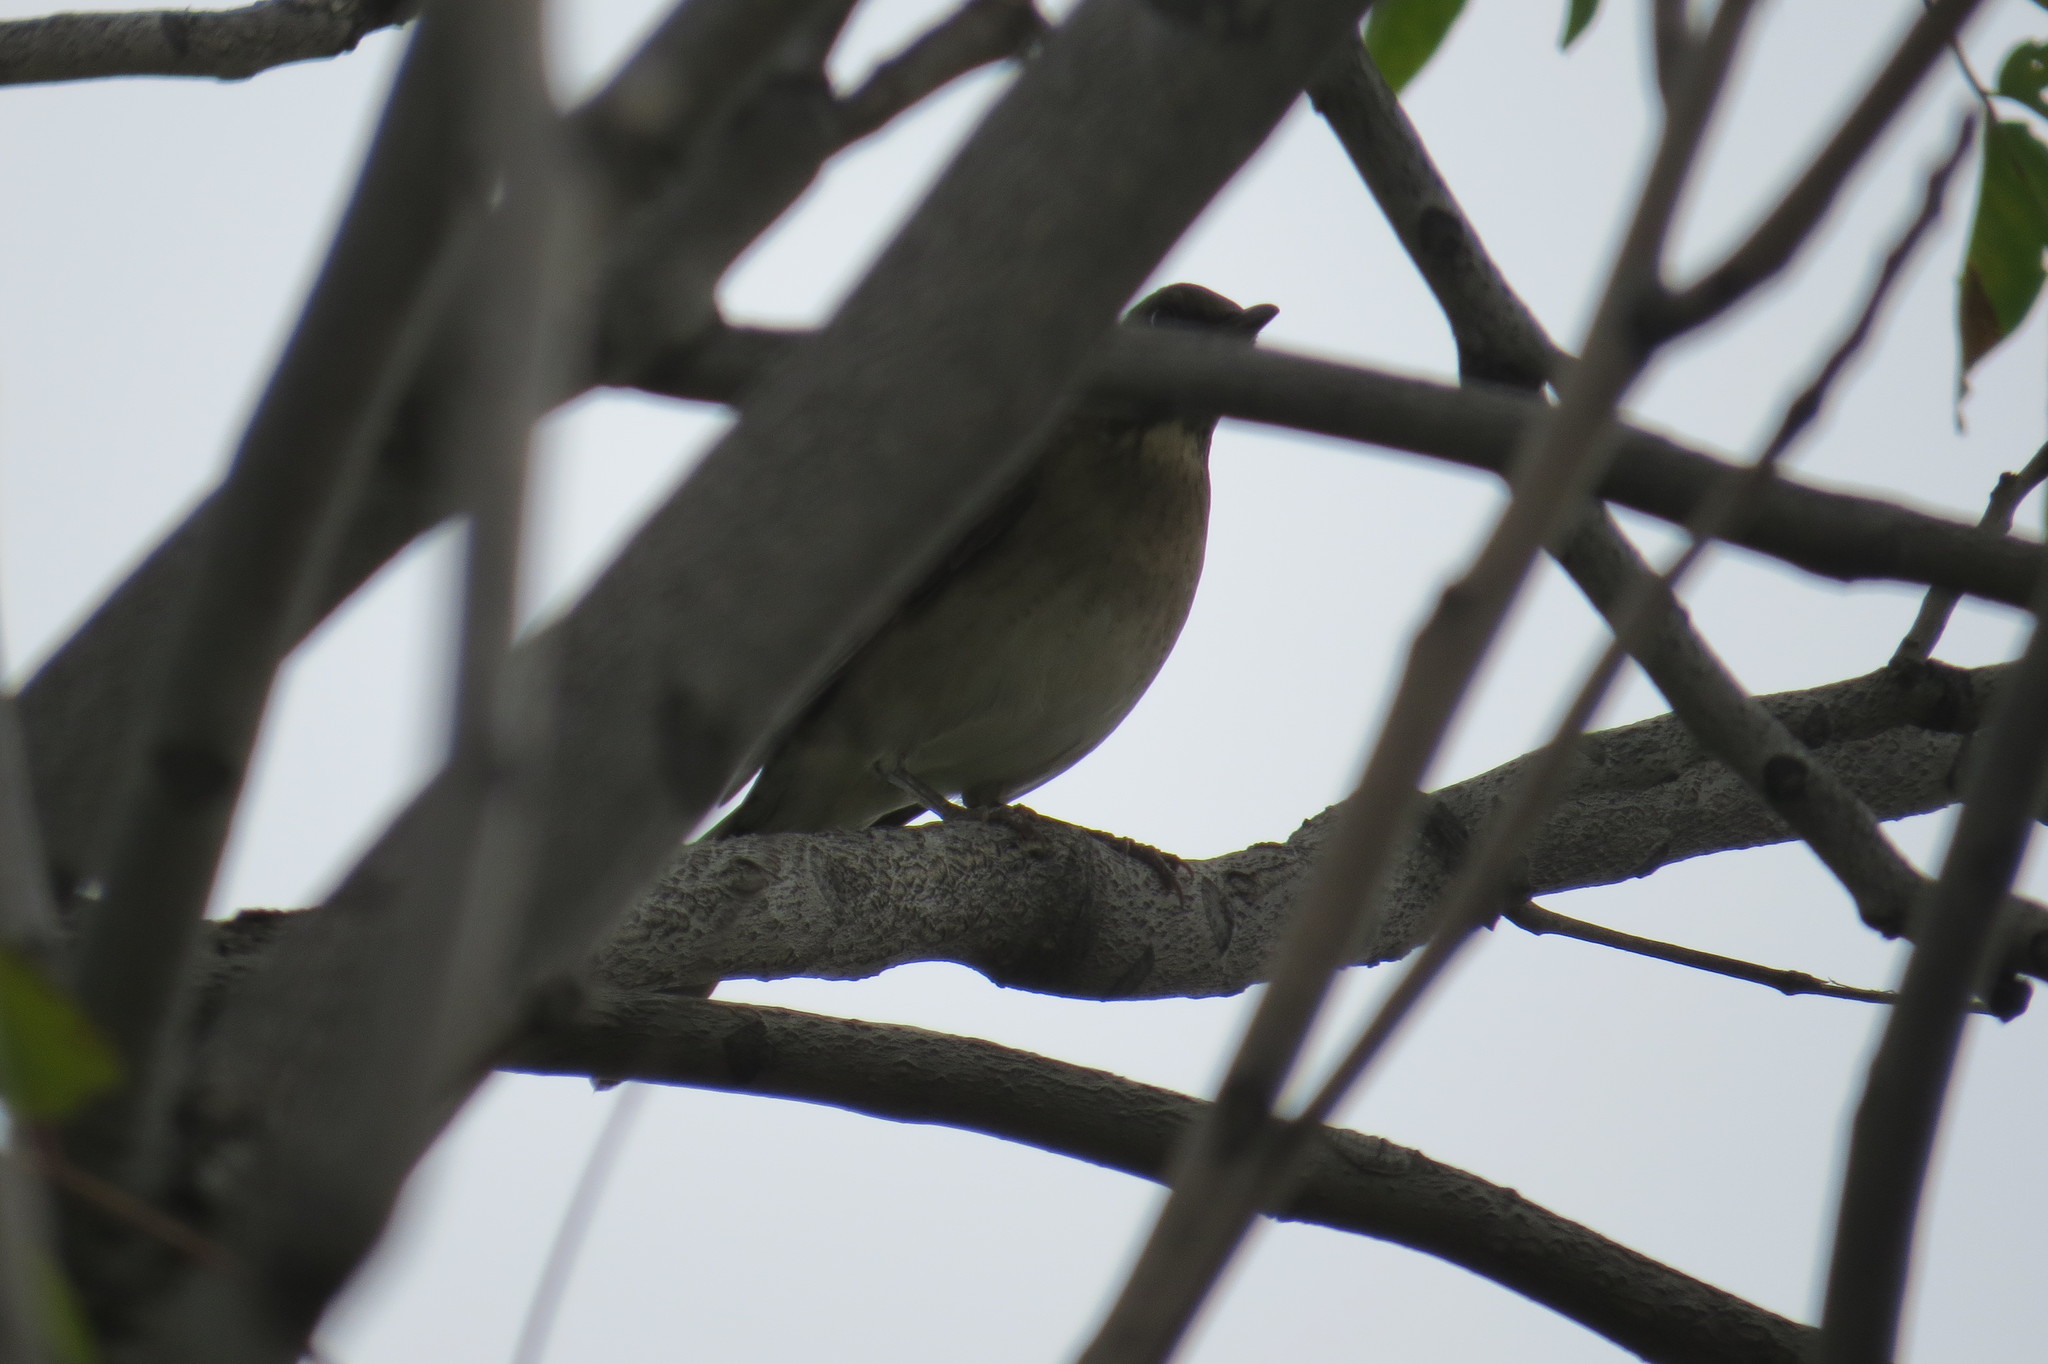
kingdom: Animalia
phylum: Chordata
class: Aves
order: Passeriformes
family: Turdidae
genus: Turdus
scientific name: Turdus amaurochalinus
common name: Creamy-bellied thrush
